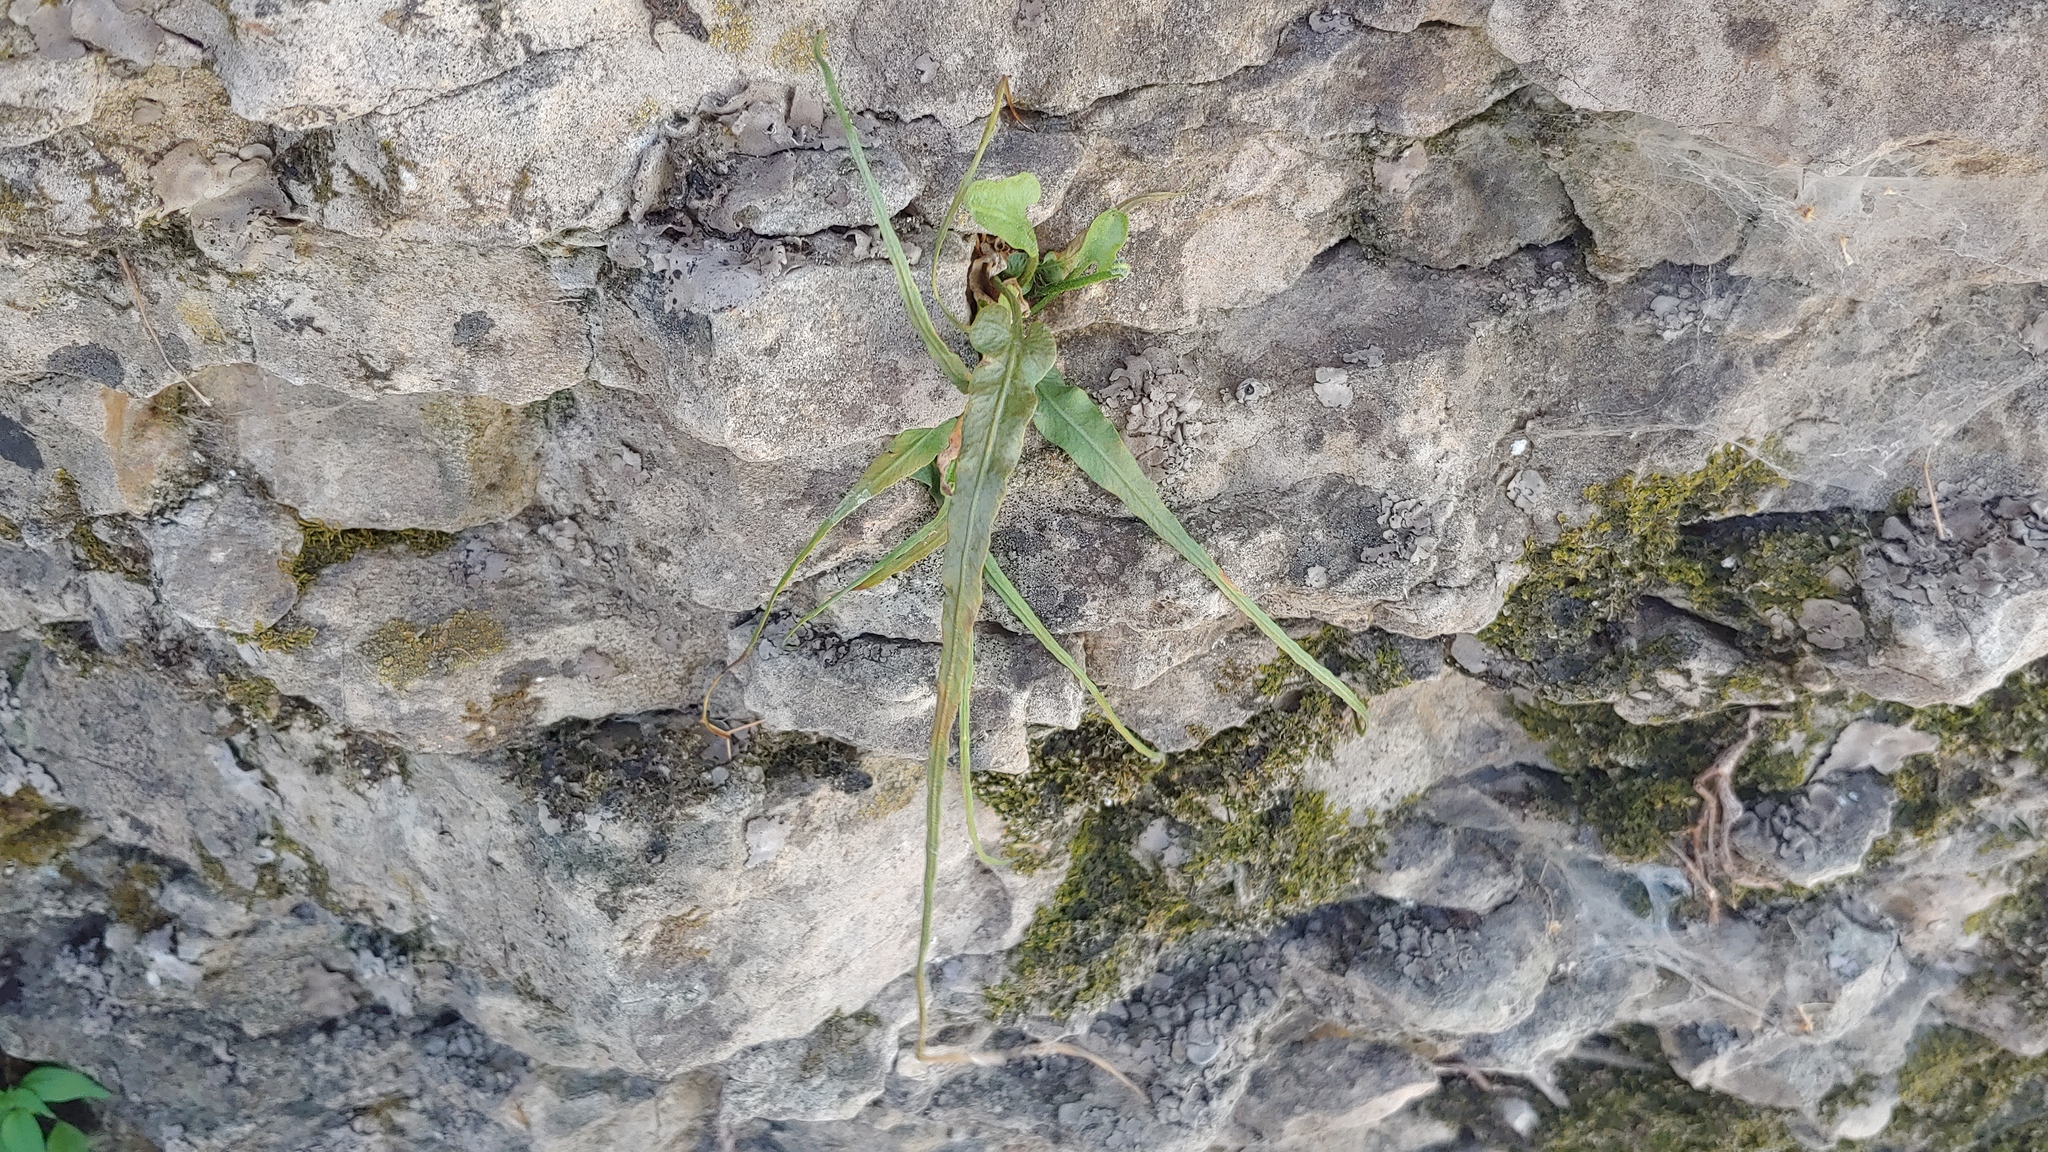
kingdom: Plantae
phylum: Tracheophyta
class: Polypodiopsida
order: Polypodiales
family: Aspleniaceae
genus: Asplenium
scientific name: Asplenium rhizophyllum
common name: Walking fern
